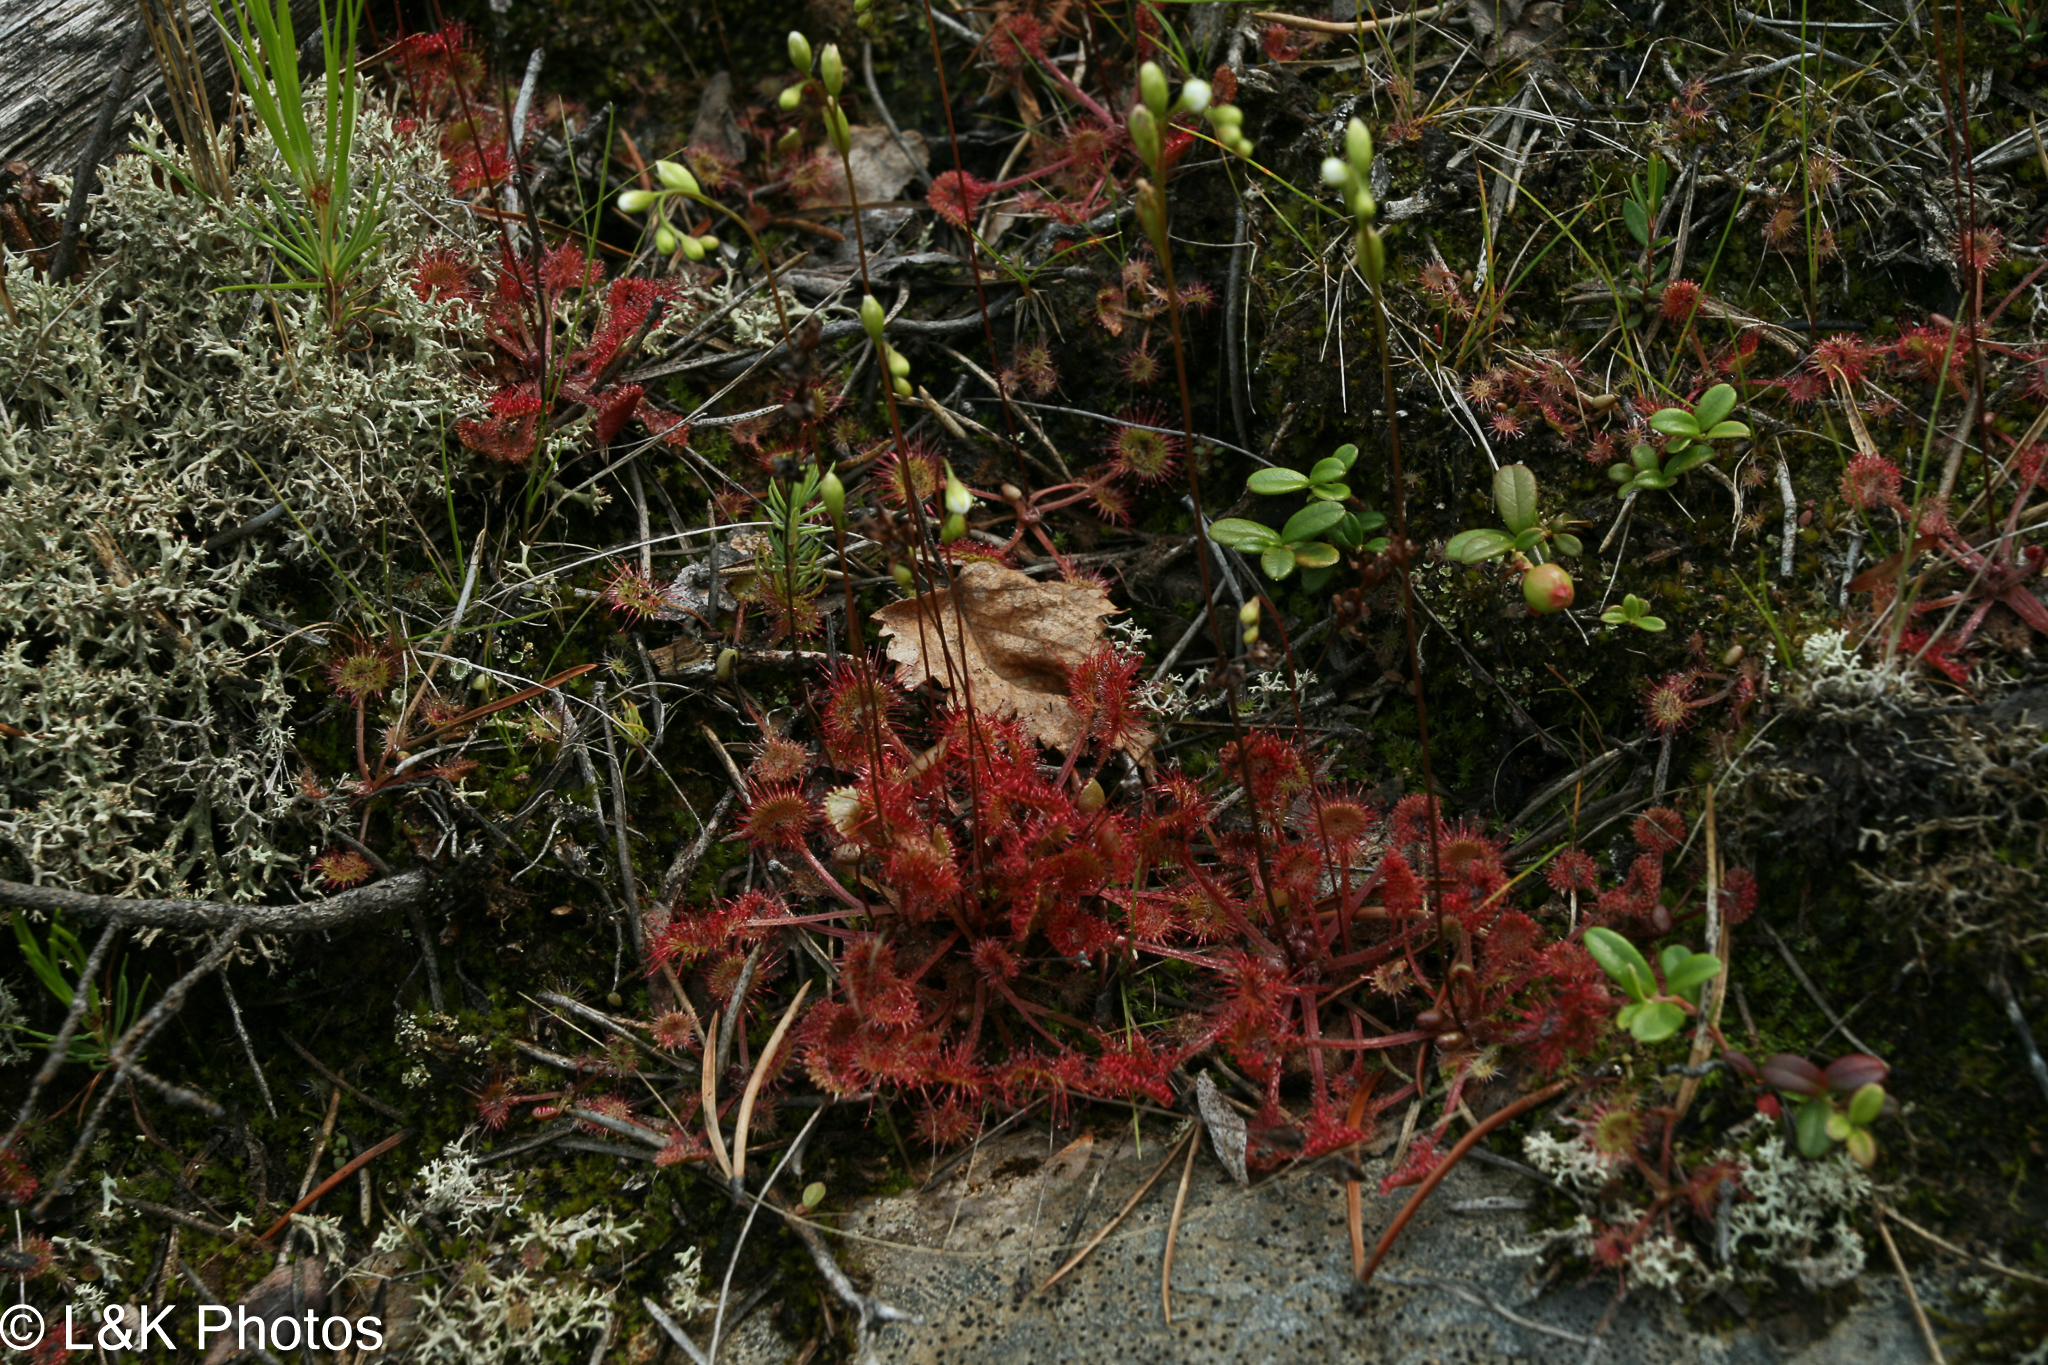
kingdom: Plantae
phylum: Tracheophyta
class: Magnoliopsida
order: Caryophyllales
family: Droseraceae
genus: Drosera
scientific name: Drosera rotundifolia
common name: Round-leaved sundew
